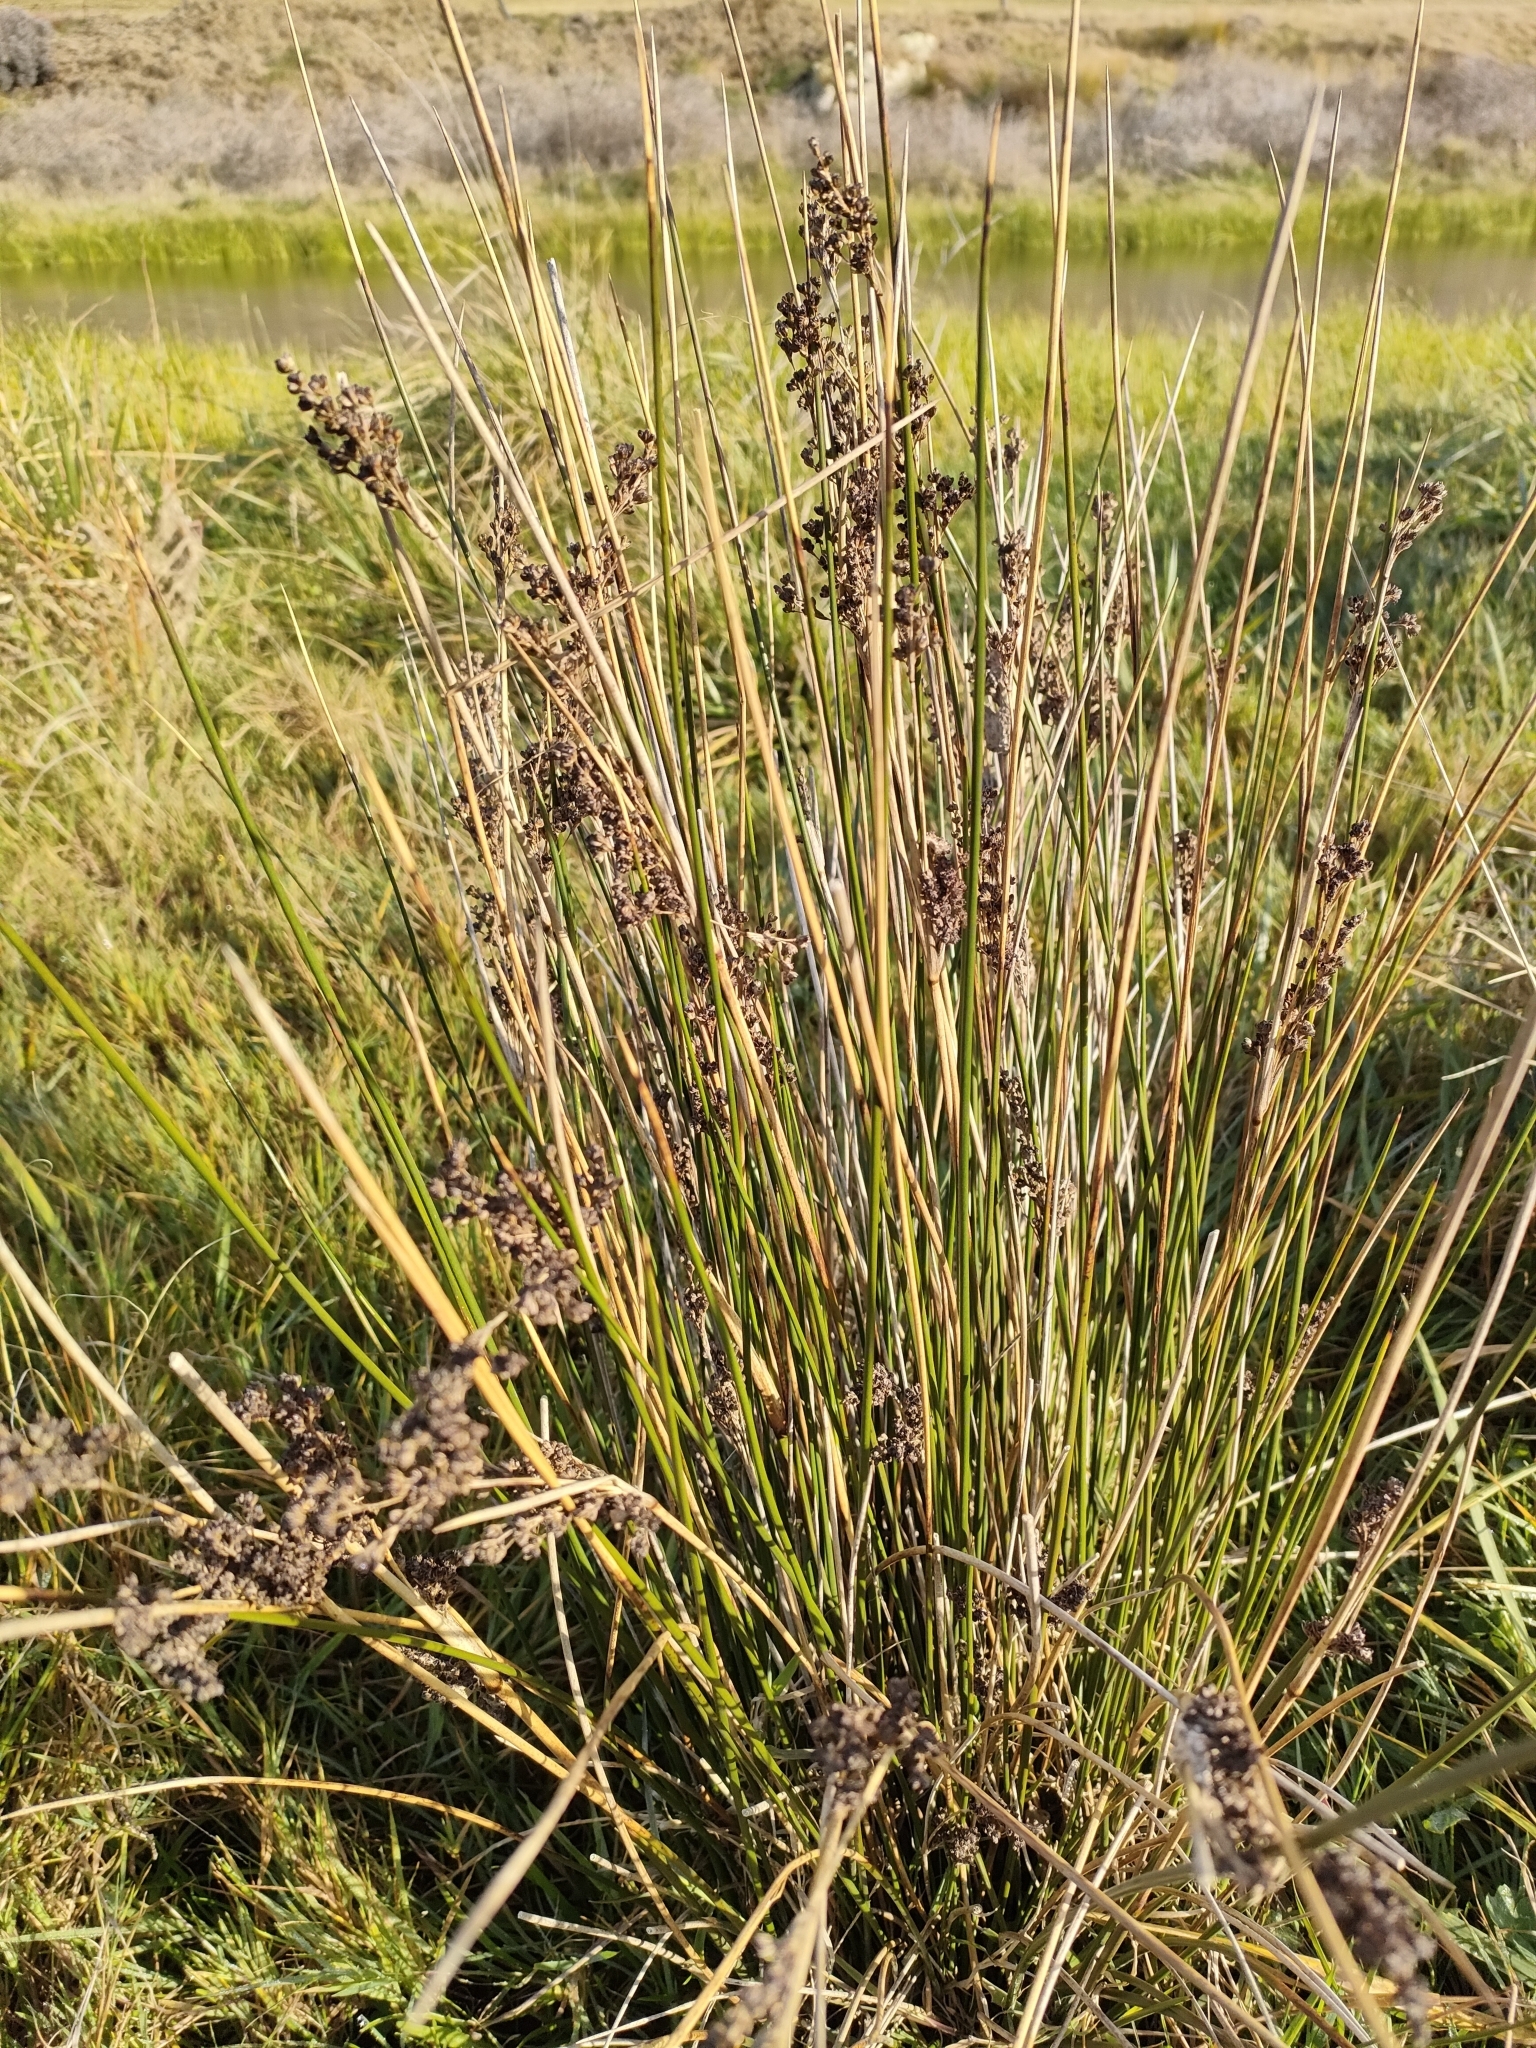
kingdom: Plantae
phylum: Tracheophyta
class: Liliopsida
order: Poales
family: Juncaceae
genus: Juncus
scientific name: Juncus kraussii
